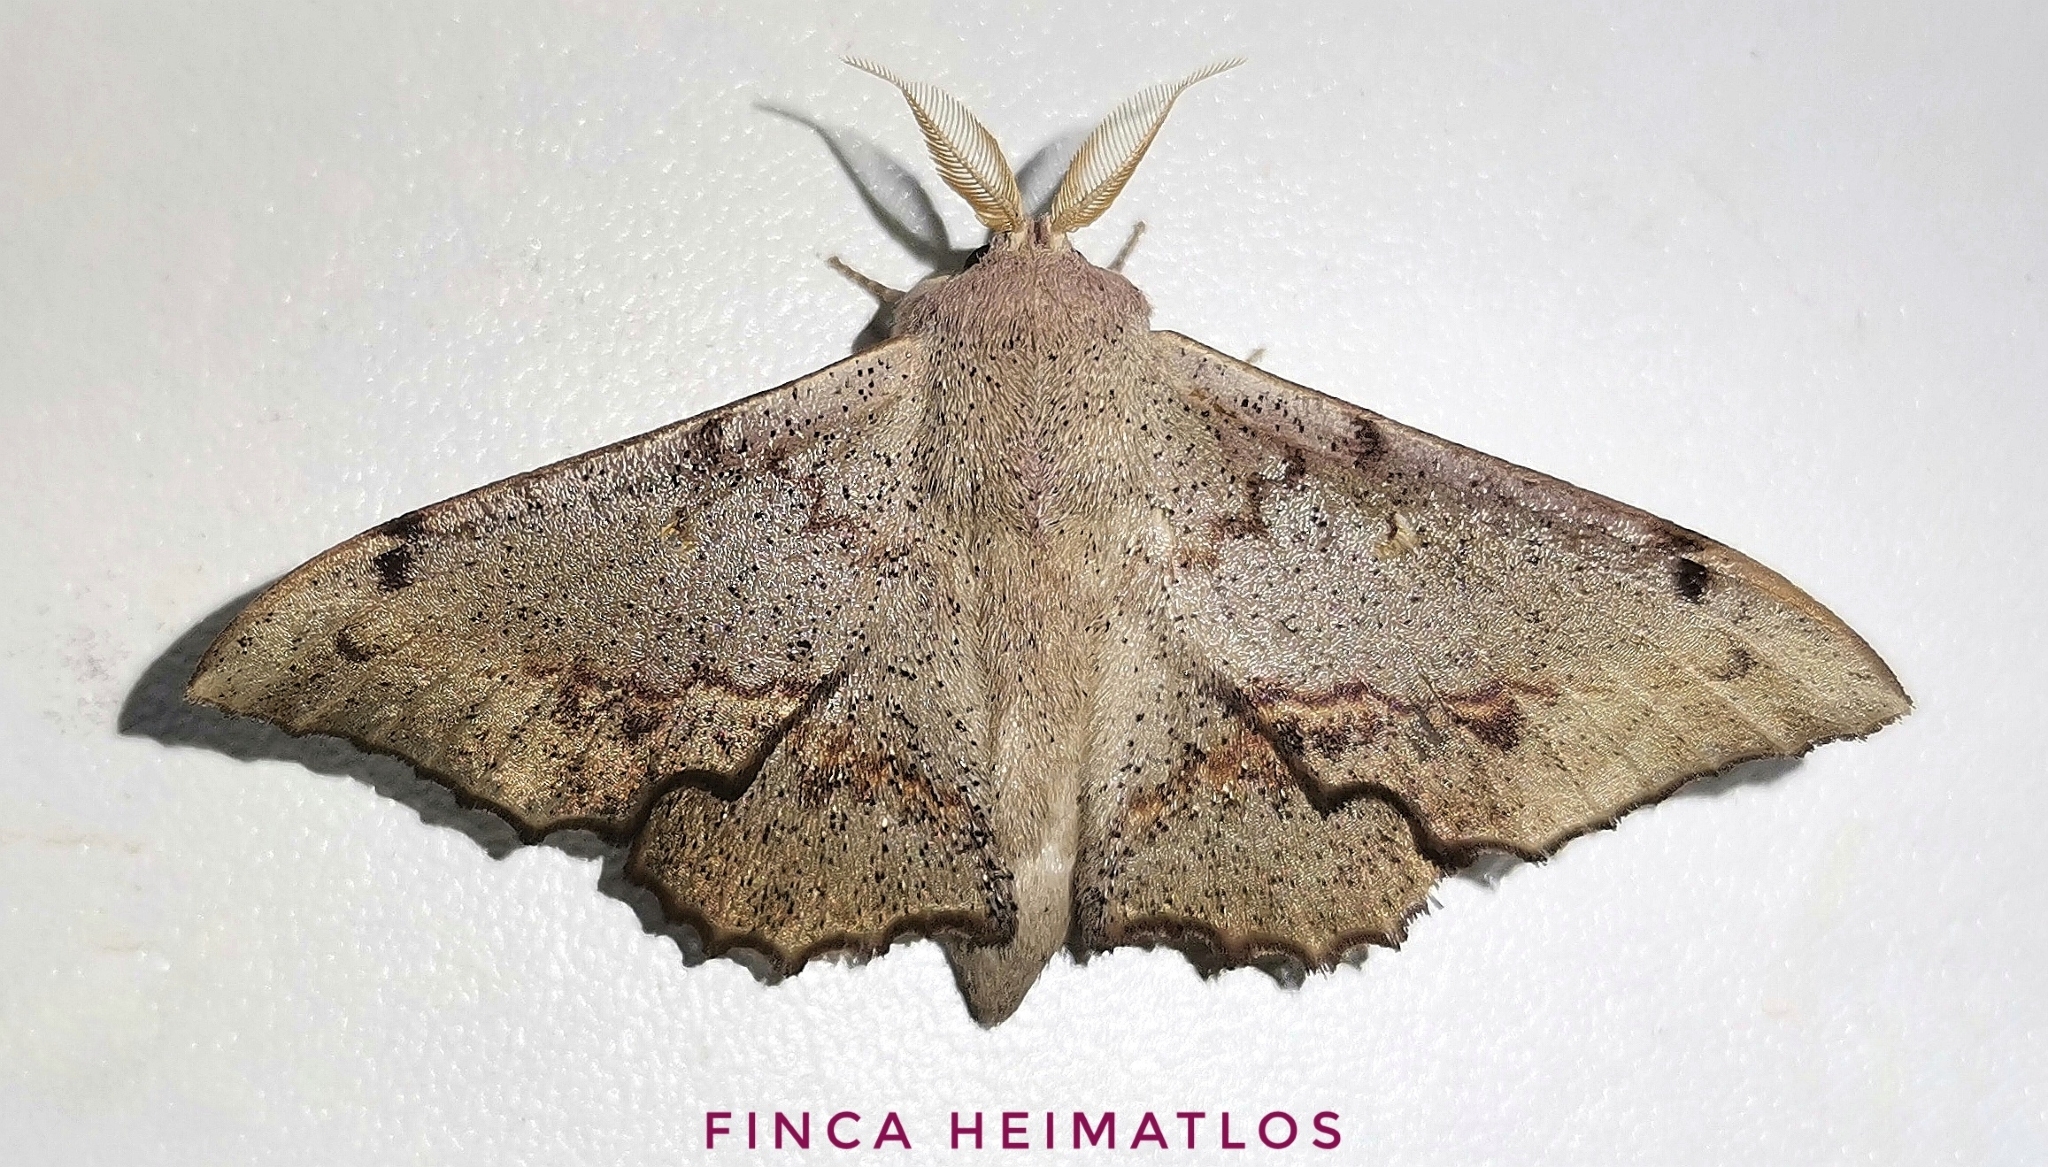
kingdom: Animalia
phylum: Arthropoda
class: Insecta
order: Lepidoptera
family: Mimallonidae
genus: Mimallo
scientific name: Mimallo brosica
